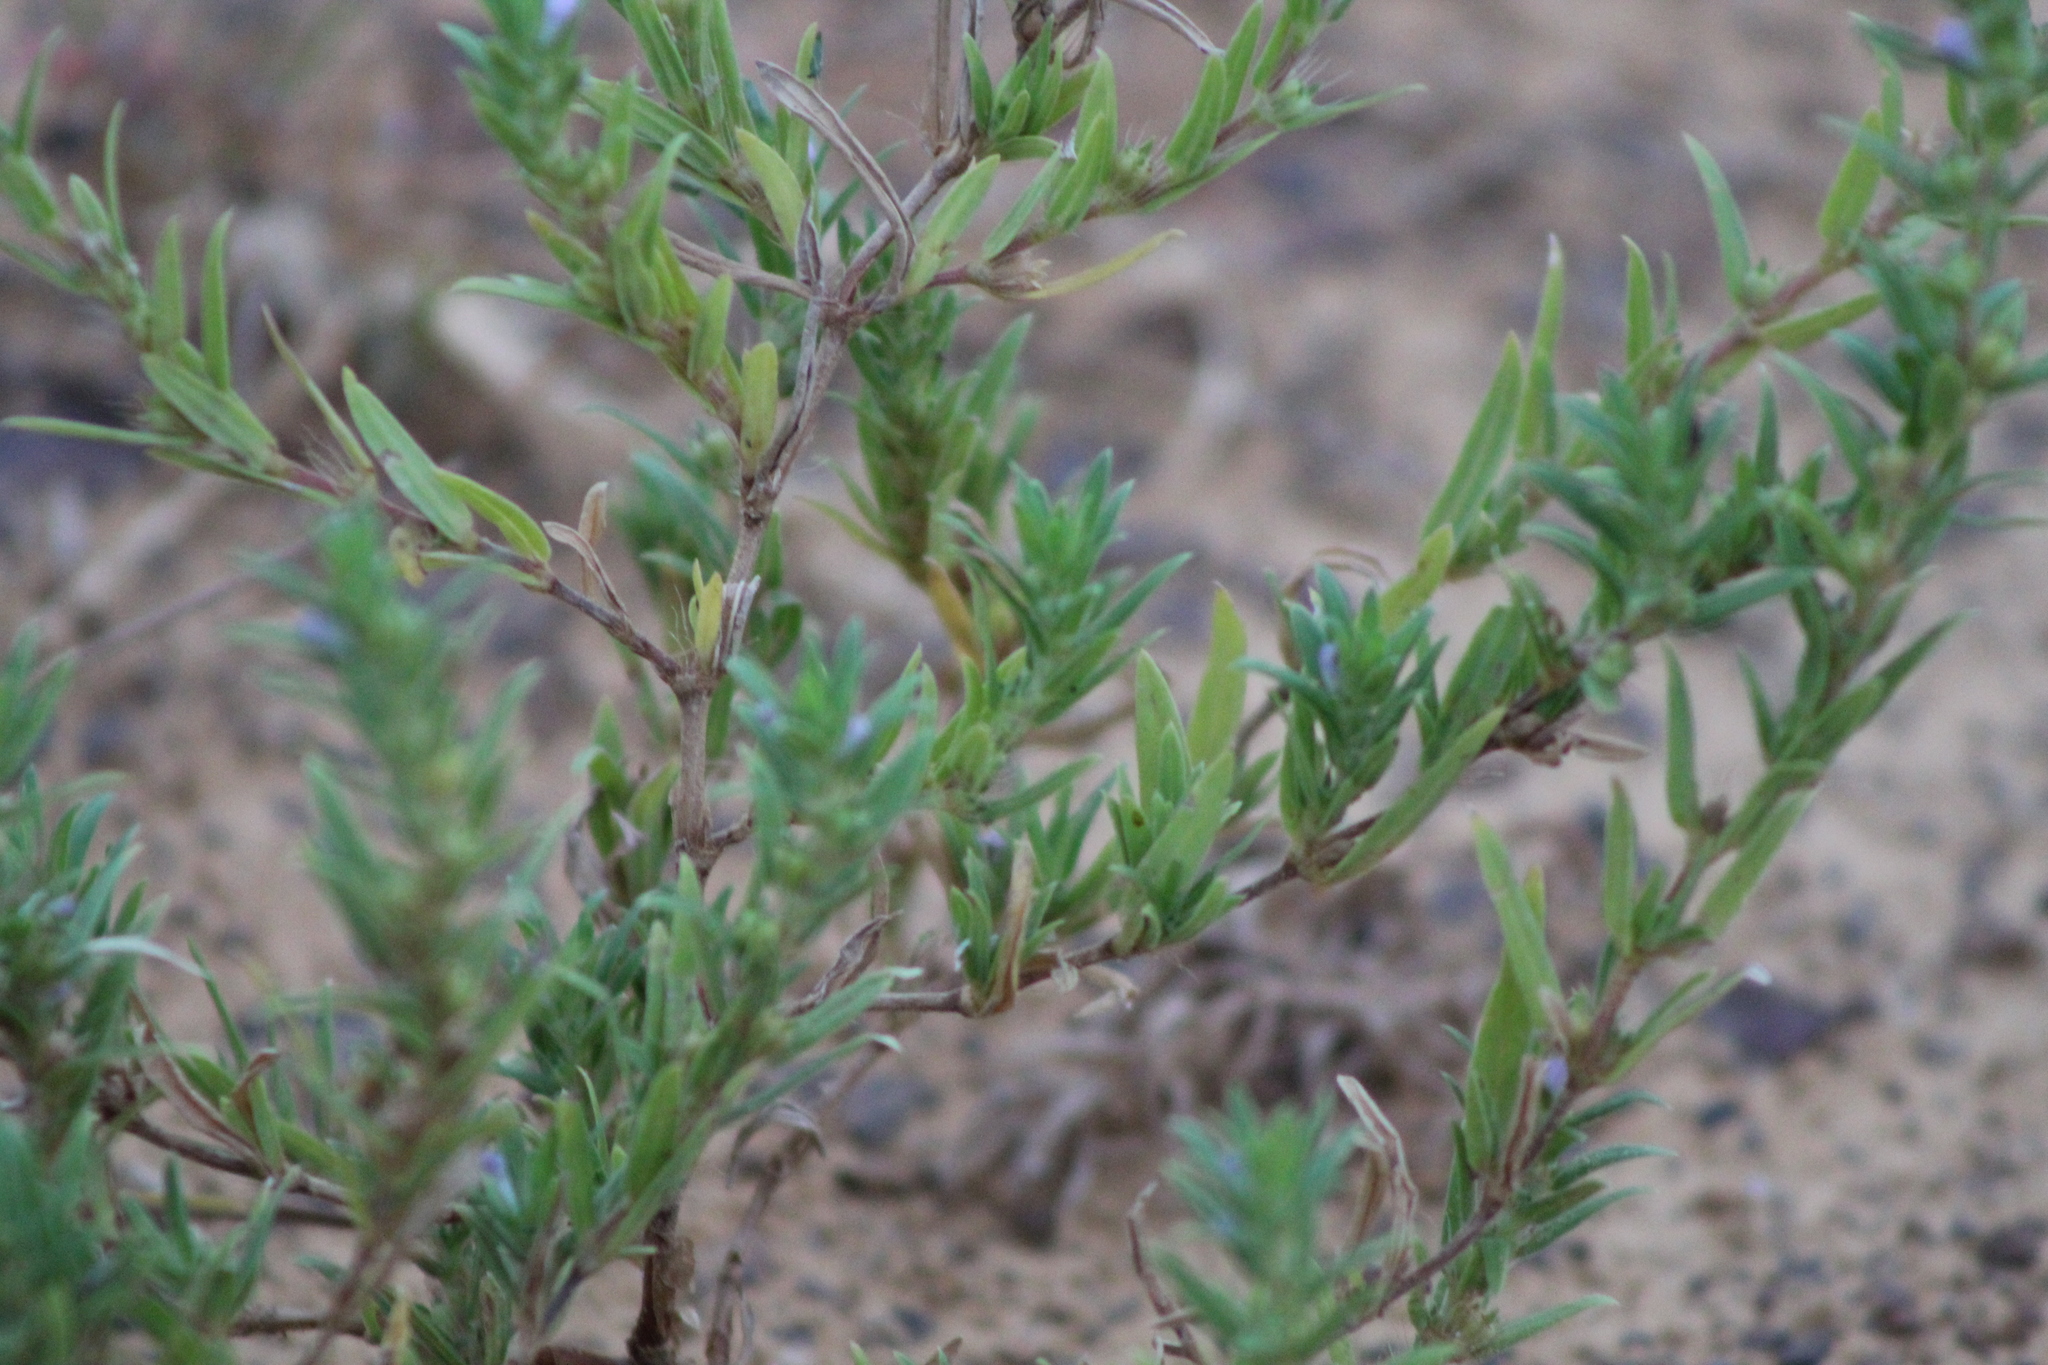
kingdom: Plantae
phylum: Tracheophyta
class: Magnoliopsida
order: Gentianales
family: Rubiaceae
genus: Hexasepalum
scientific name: Hexasepalum teres
